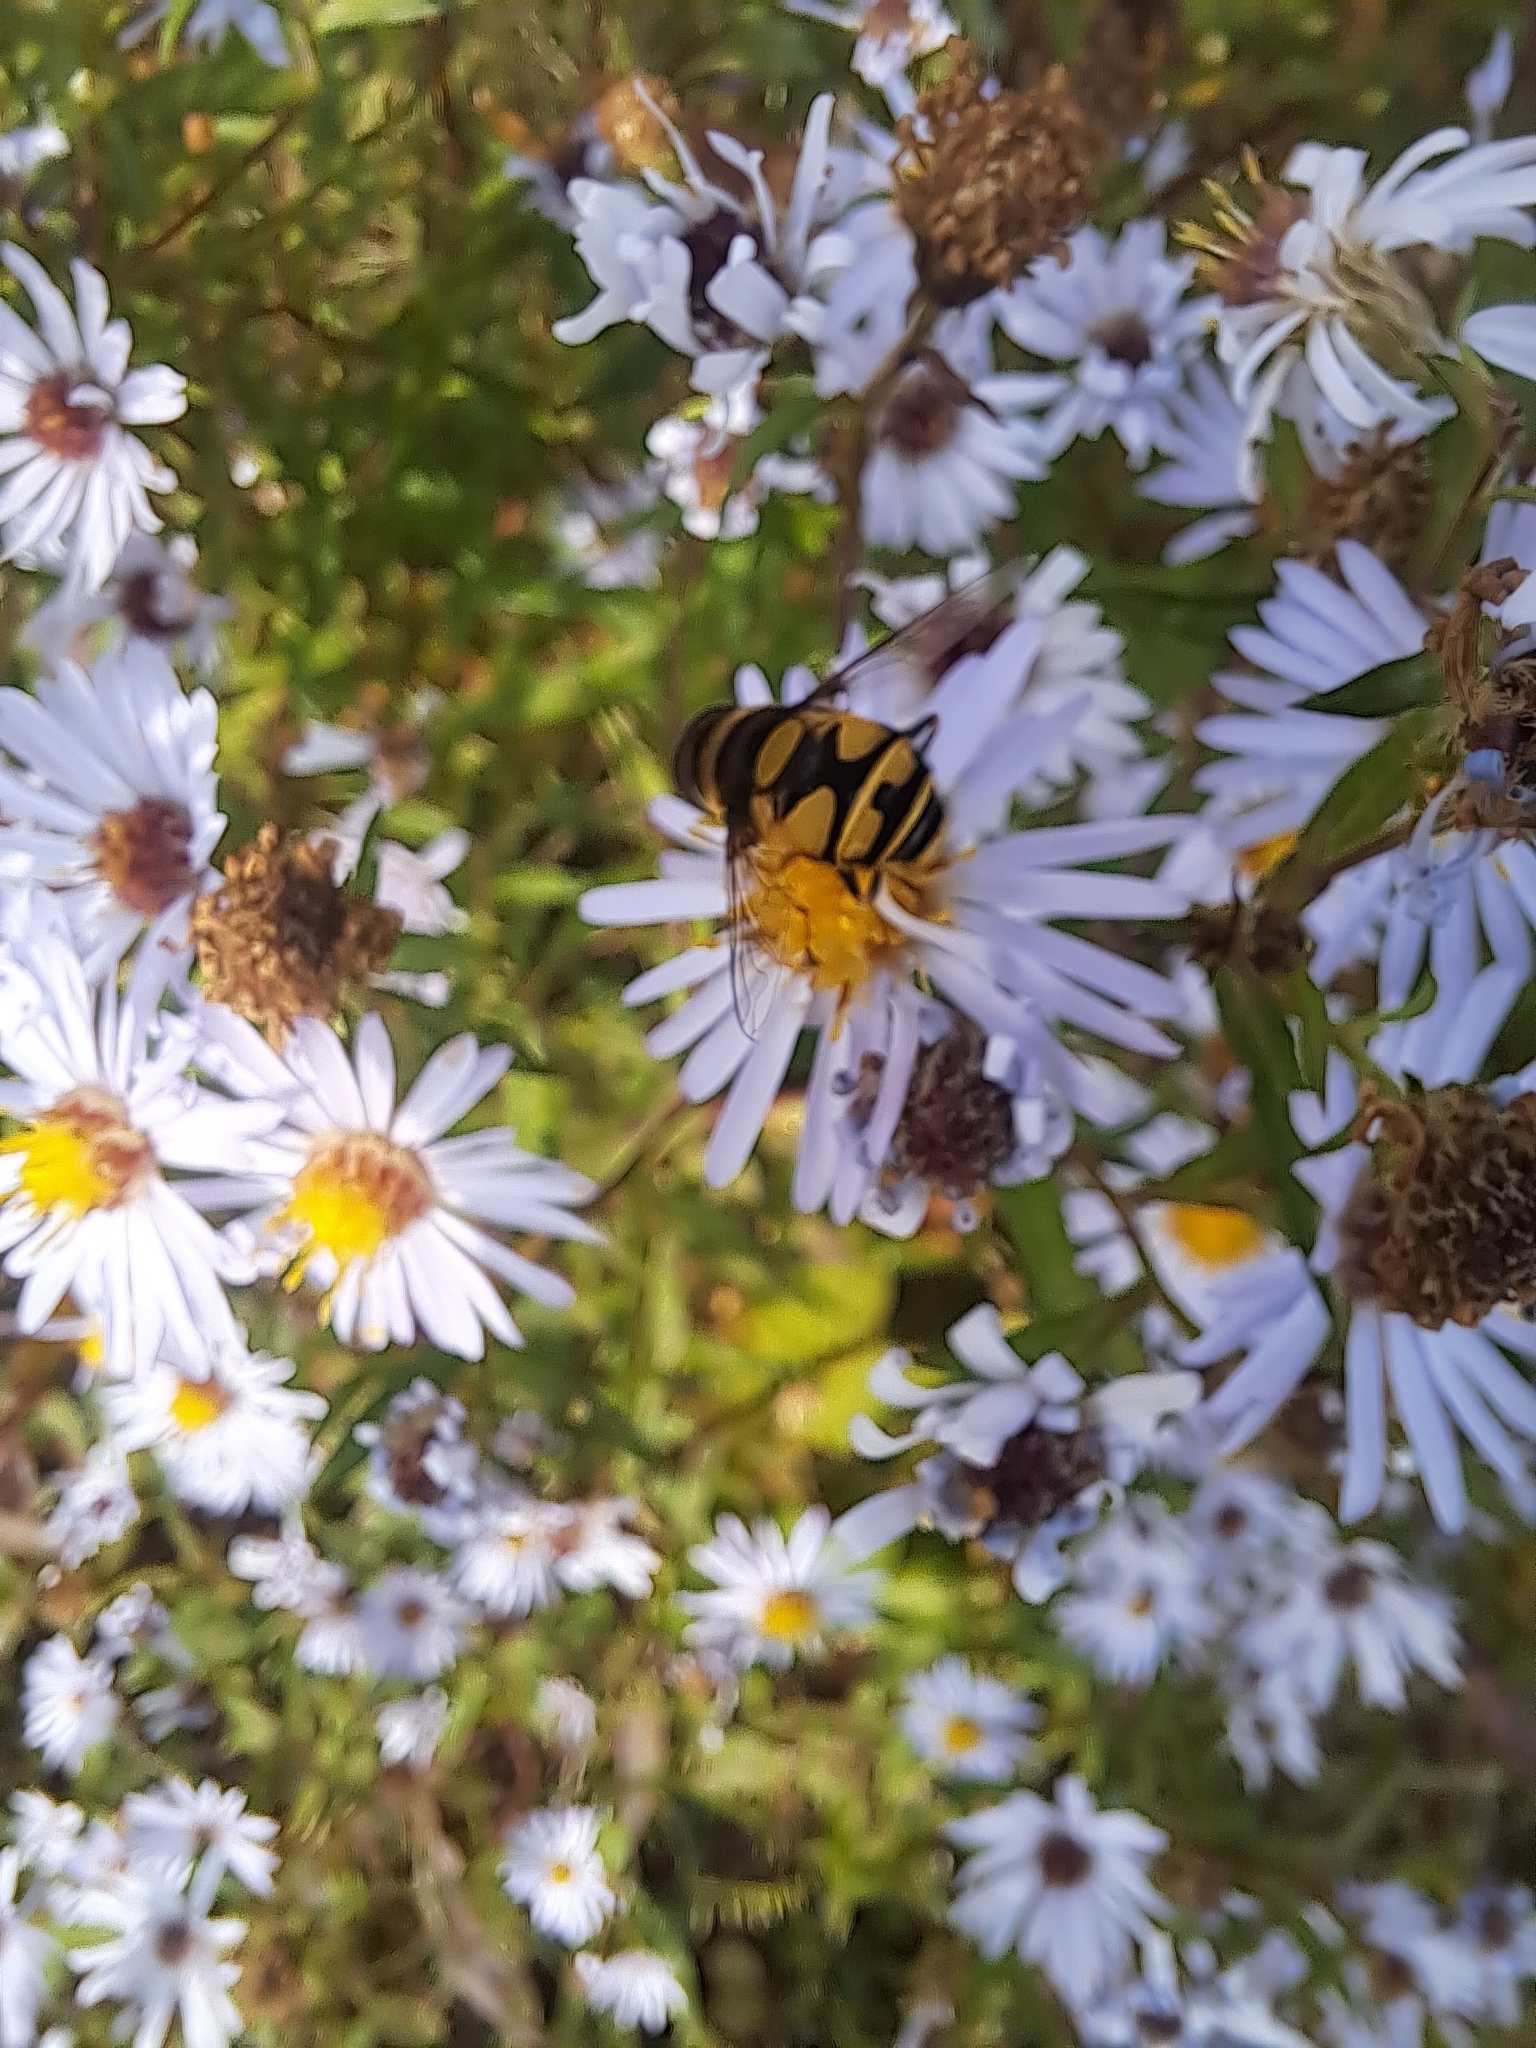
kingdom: Animalia
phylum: Arthropoda
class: Insecta
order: Diptera
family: Syrphidae
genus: Eristalis
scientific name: Eristalis transversa
